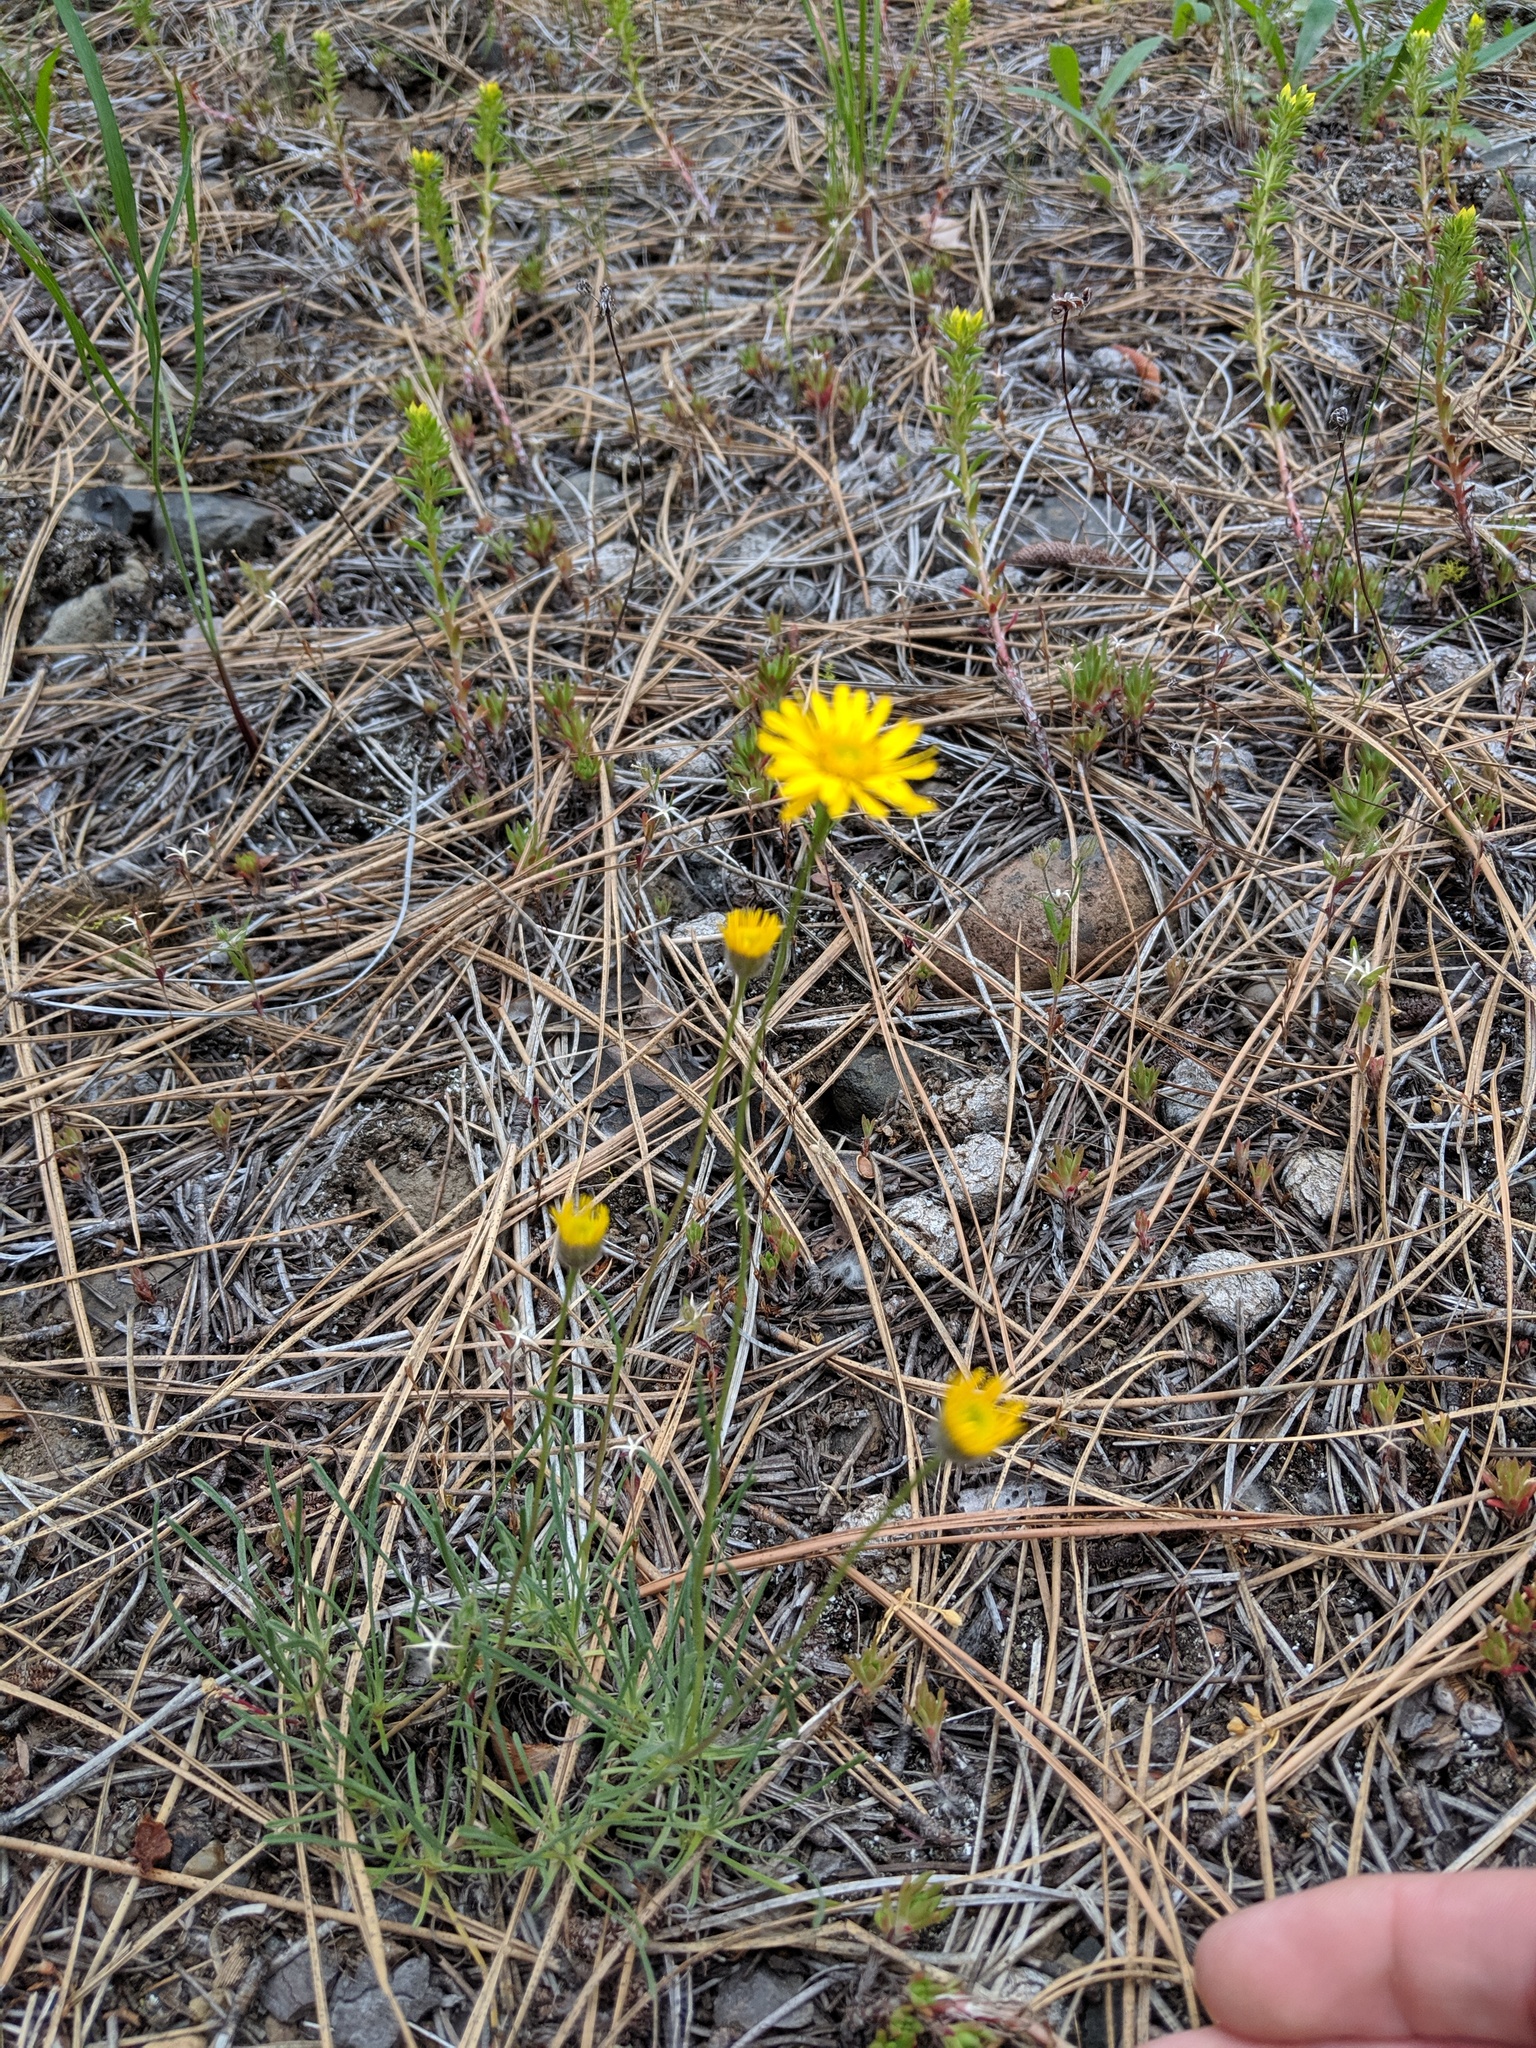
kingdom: Plantae
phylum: Tracheophyta
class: Magnoliopsida
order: Asterales
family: Asteraceae
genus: Erigeron
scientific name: Erigeron linearis
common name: Desert yellow fleabane
